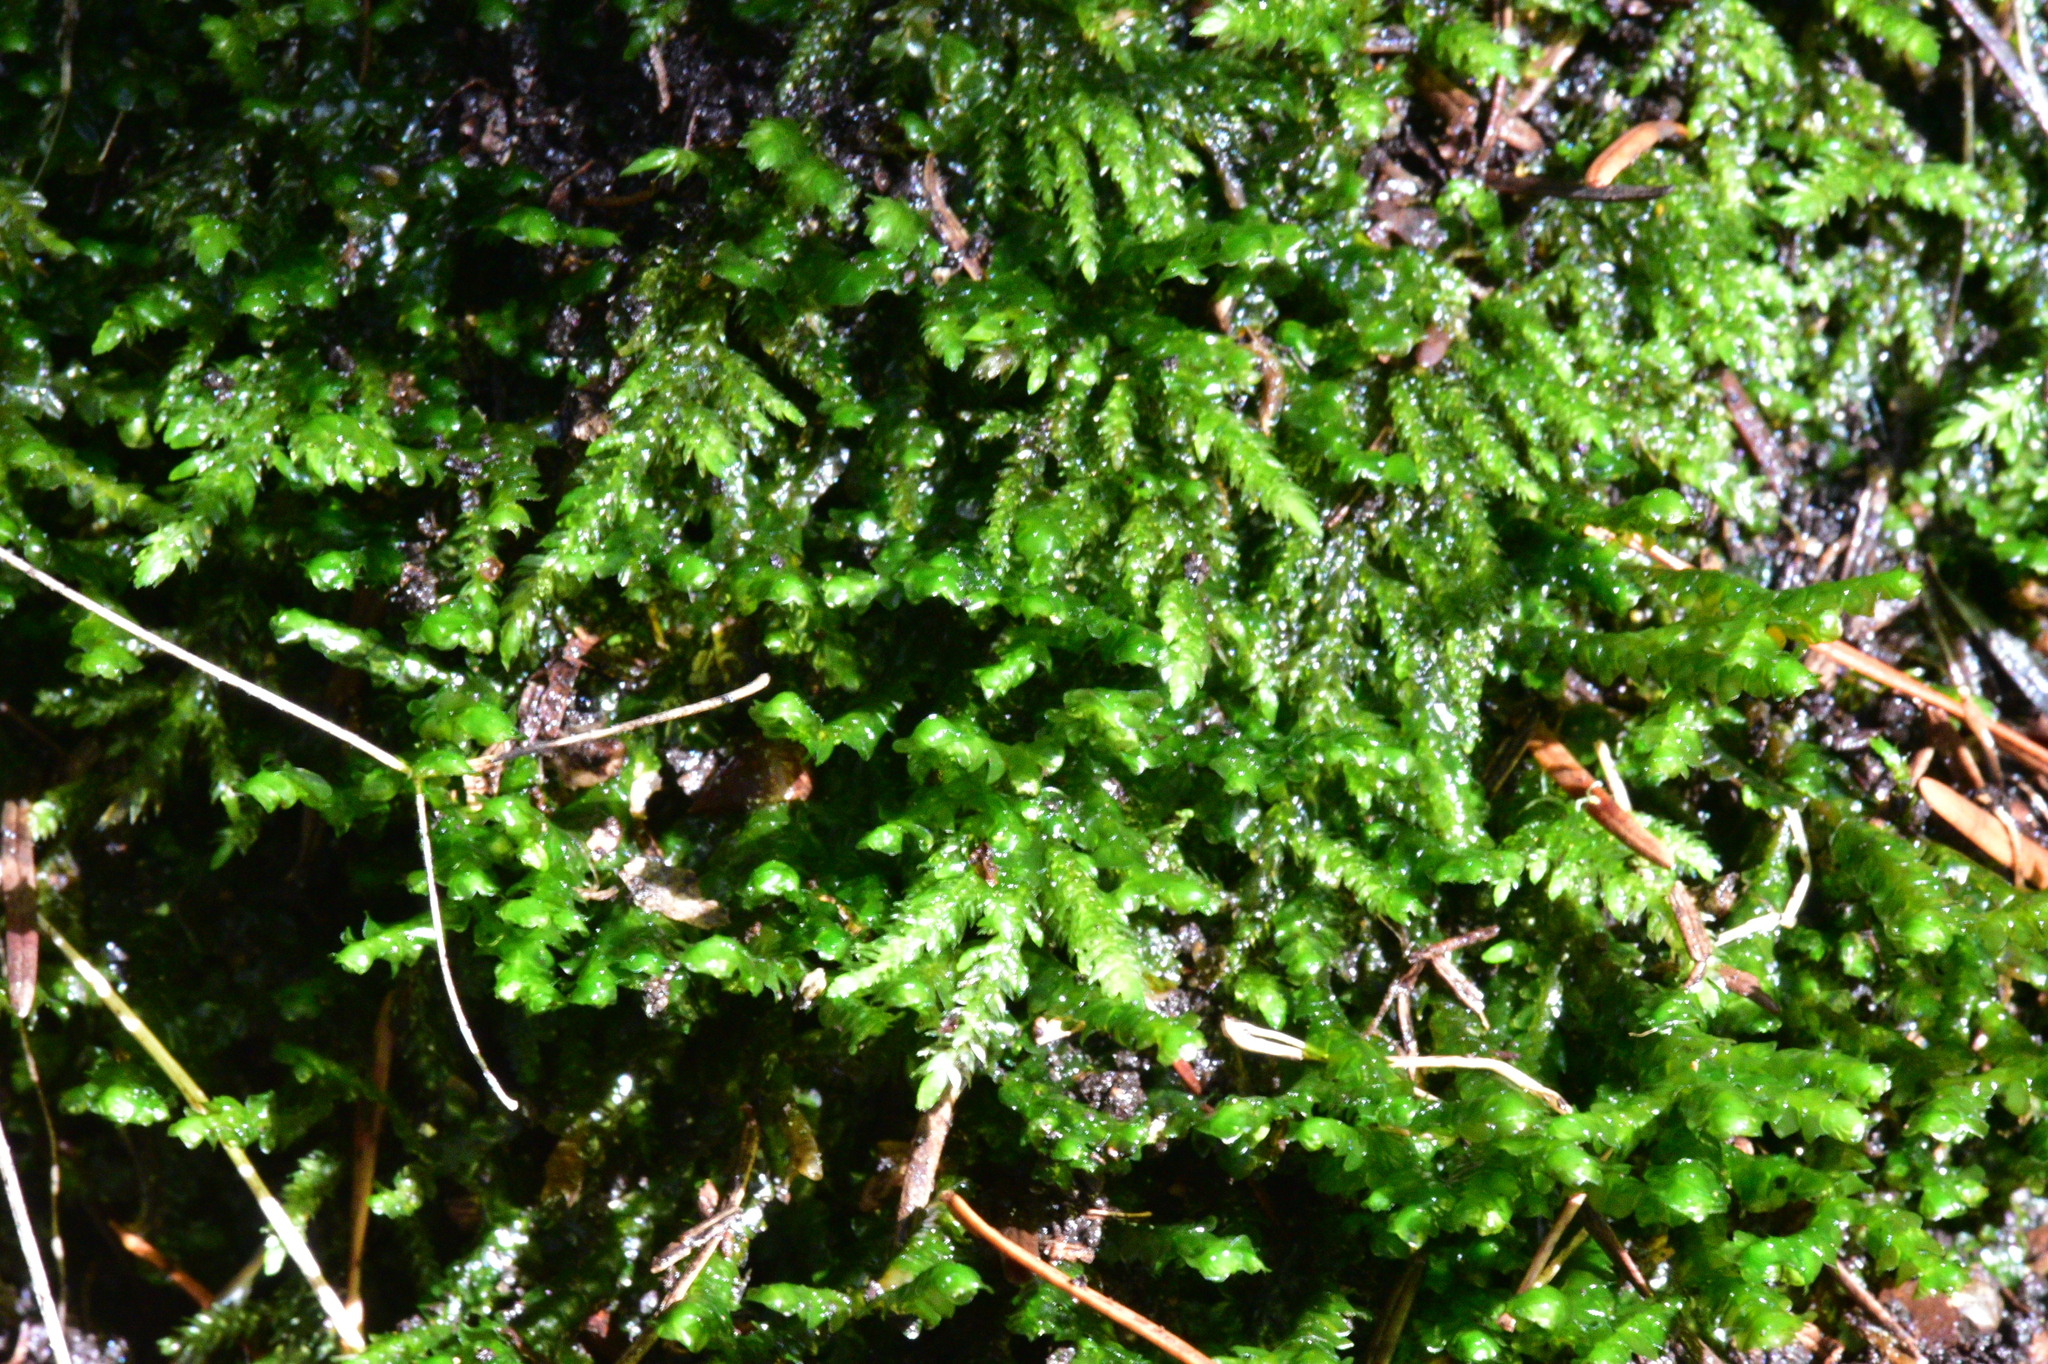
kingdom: Plantae
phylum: Marchantiophyta
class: Jungermanniopsida
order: Porellales
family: Porellaceae
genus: Porella
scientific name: Porella cordaeana
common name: Cliff scalewort
